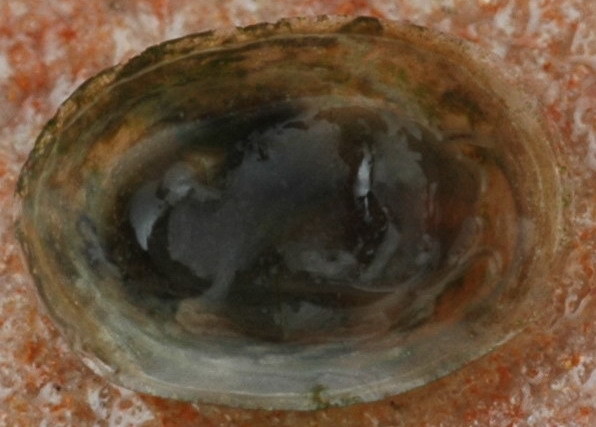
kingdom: Animalia
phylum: Mollusca
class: Gastropoda
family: Planorbidae
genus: Laevapex
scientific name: Laevapex fuscus
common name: Dusky ancylid
